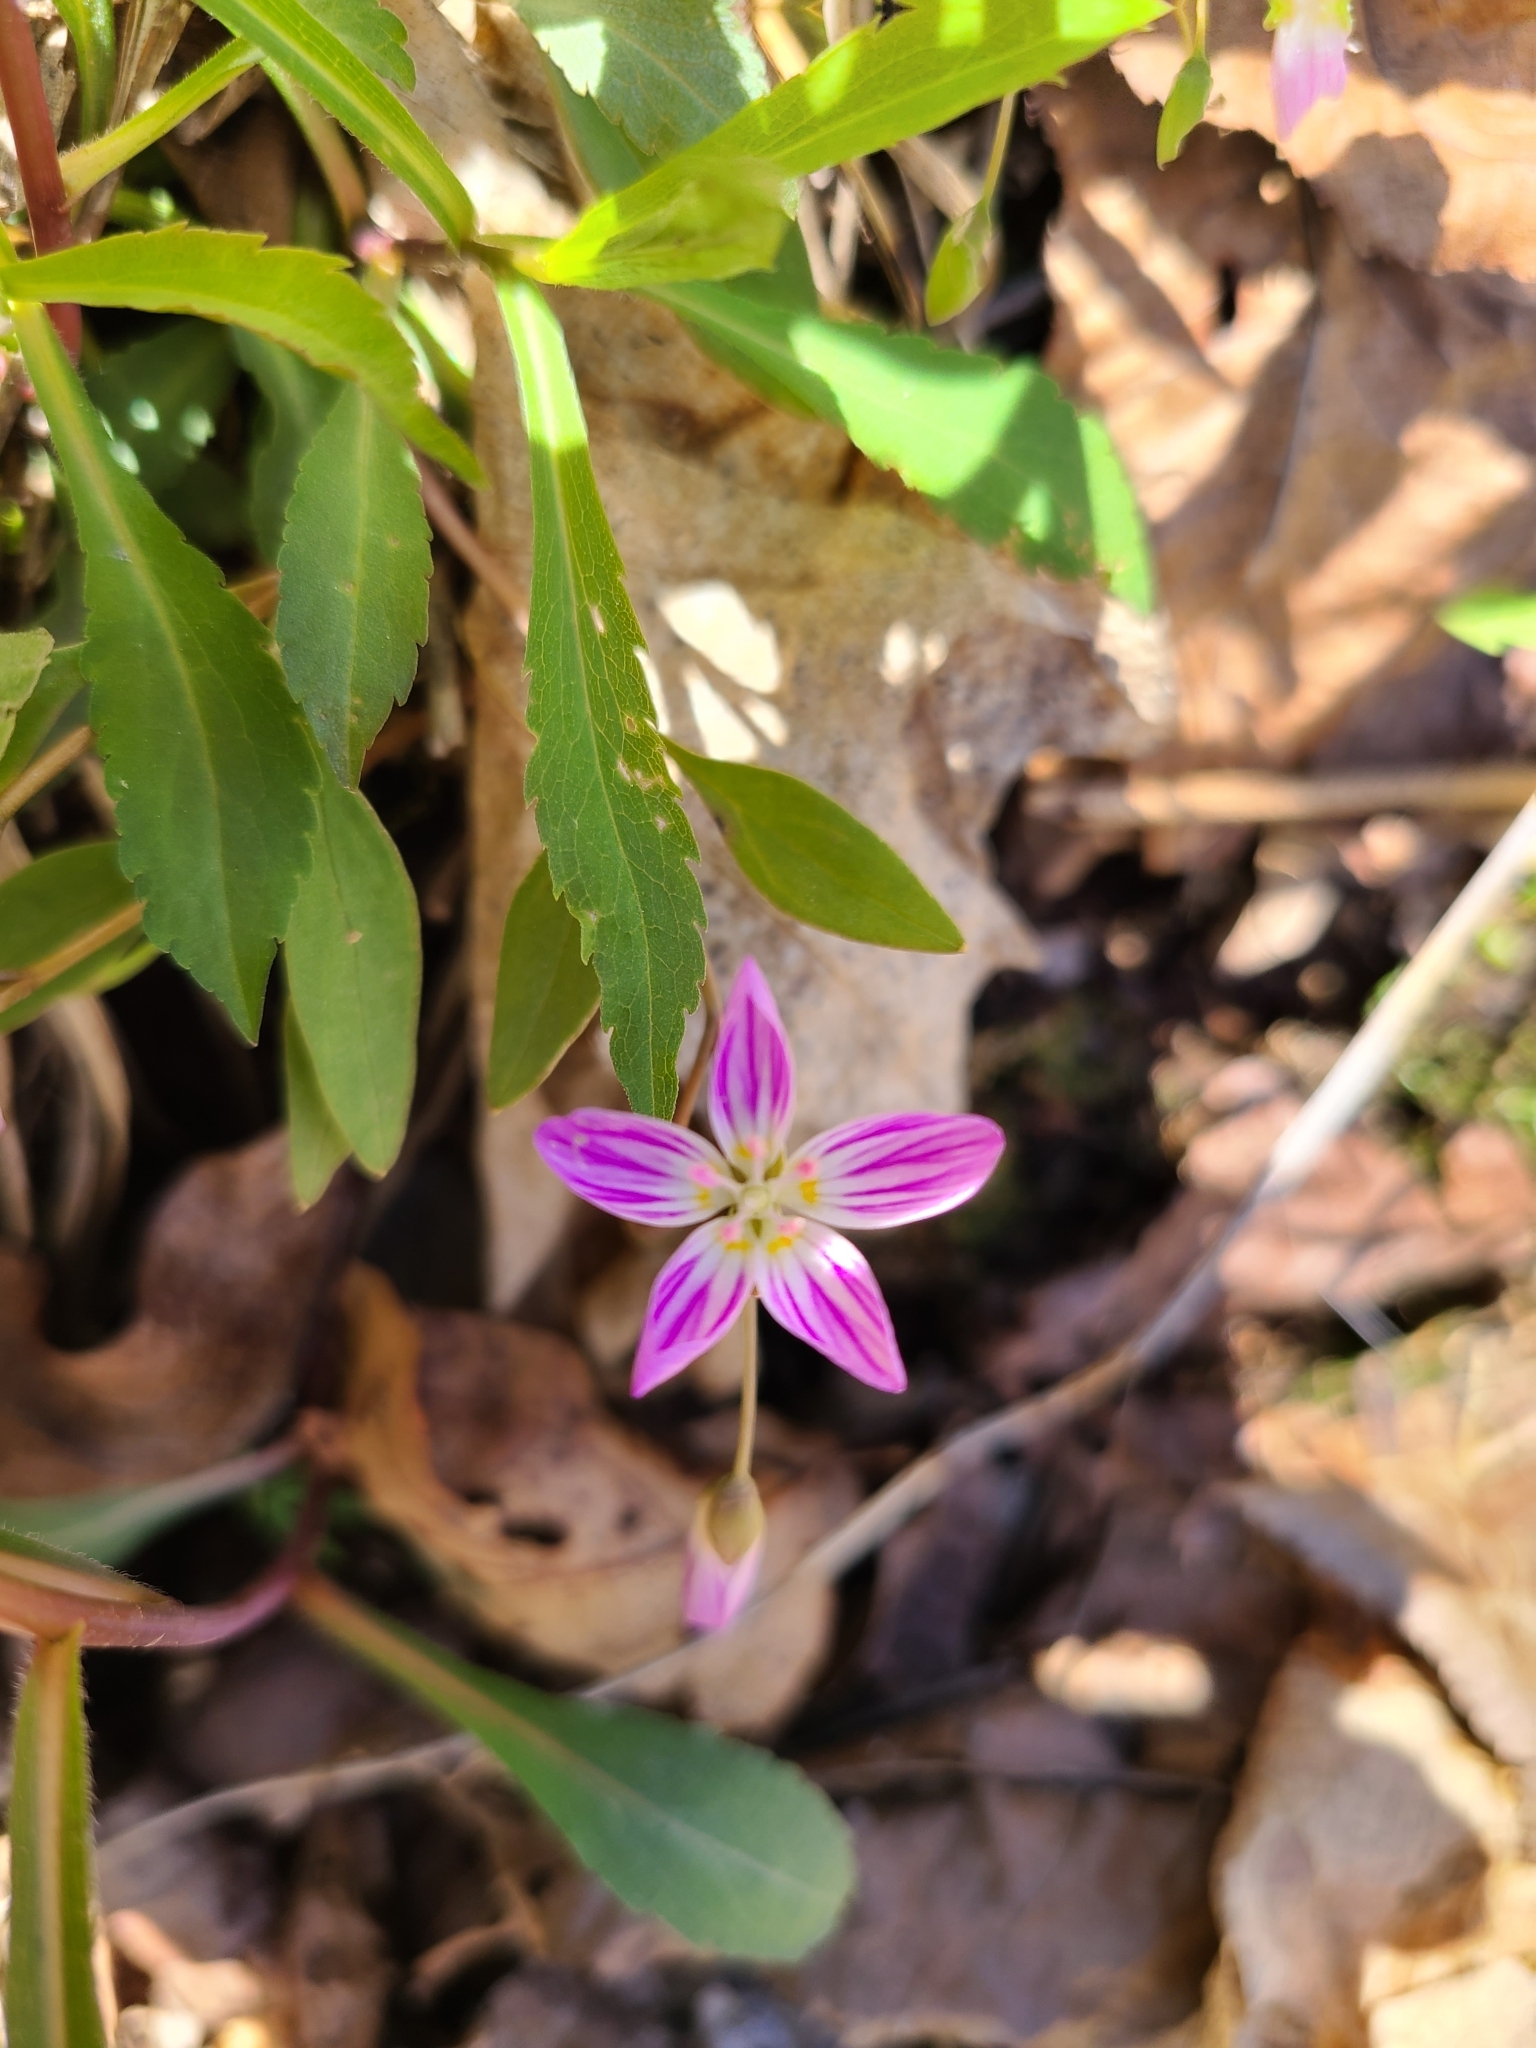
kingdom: Plantae
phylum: Tracheophyta
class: Magnoliopsida
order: Caryophyllales
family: Montiaceae
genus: Claytonia
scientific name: Claytonia caroliniana
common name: Carolina spring beauty
